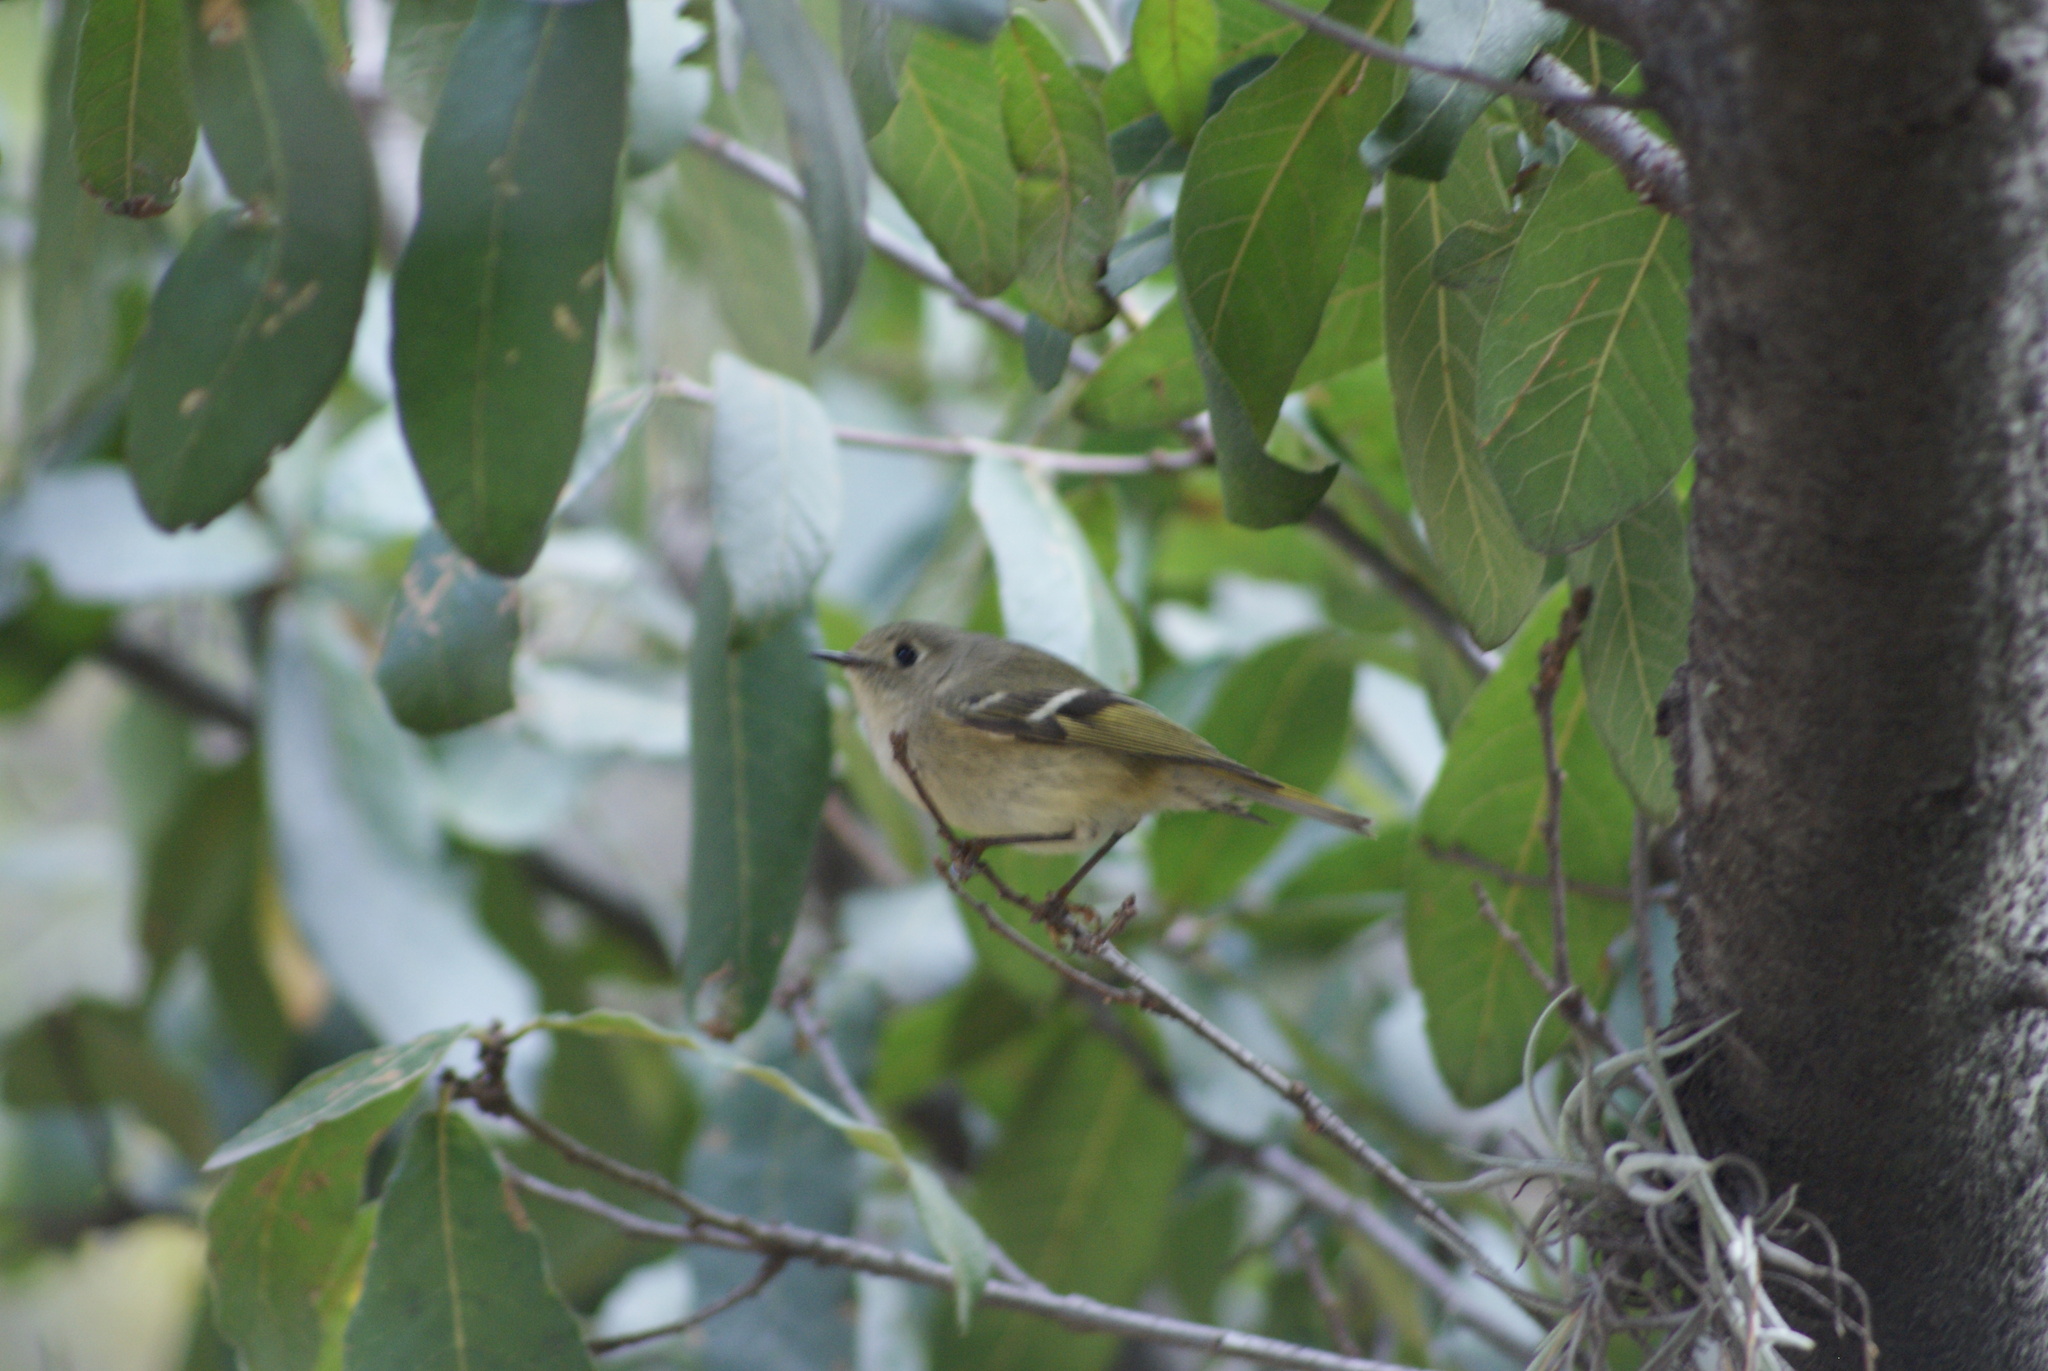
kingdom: Animalia
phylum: Chordata
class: Aves
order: Passeriformes
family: Regulidae
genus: Regulus
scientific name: Regulus calendula
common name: Ruby-crowned kinglet
